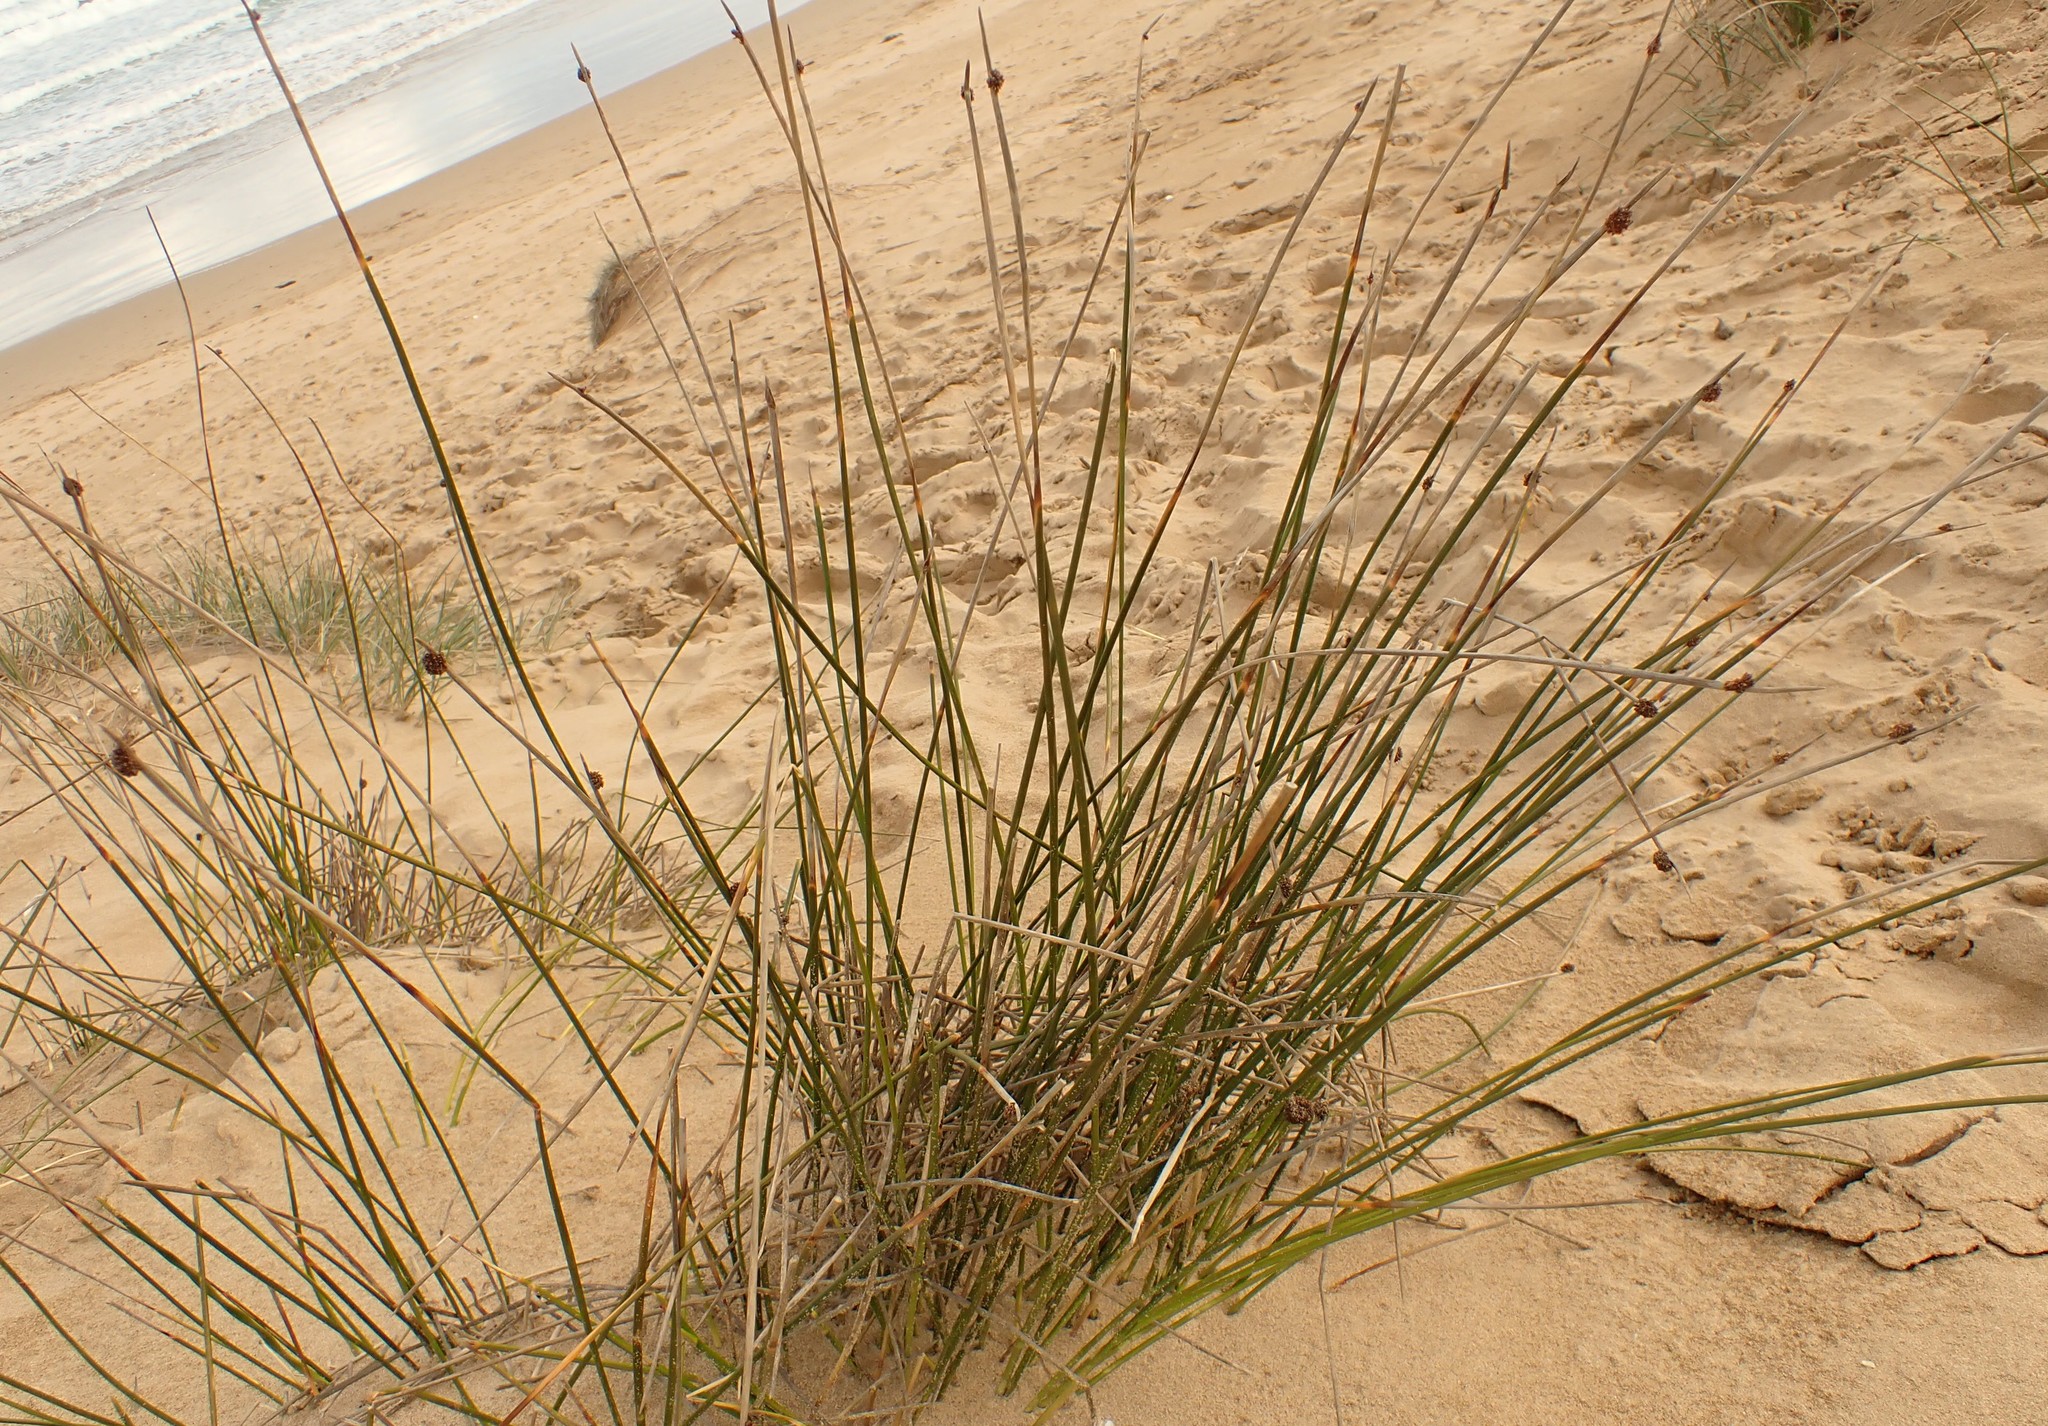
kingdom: Plantae
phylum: Tracheophyta
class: Liliopsida
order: Poales
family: Cyperaceae
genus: Ficinia
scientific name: Ficinia nodosa
